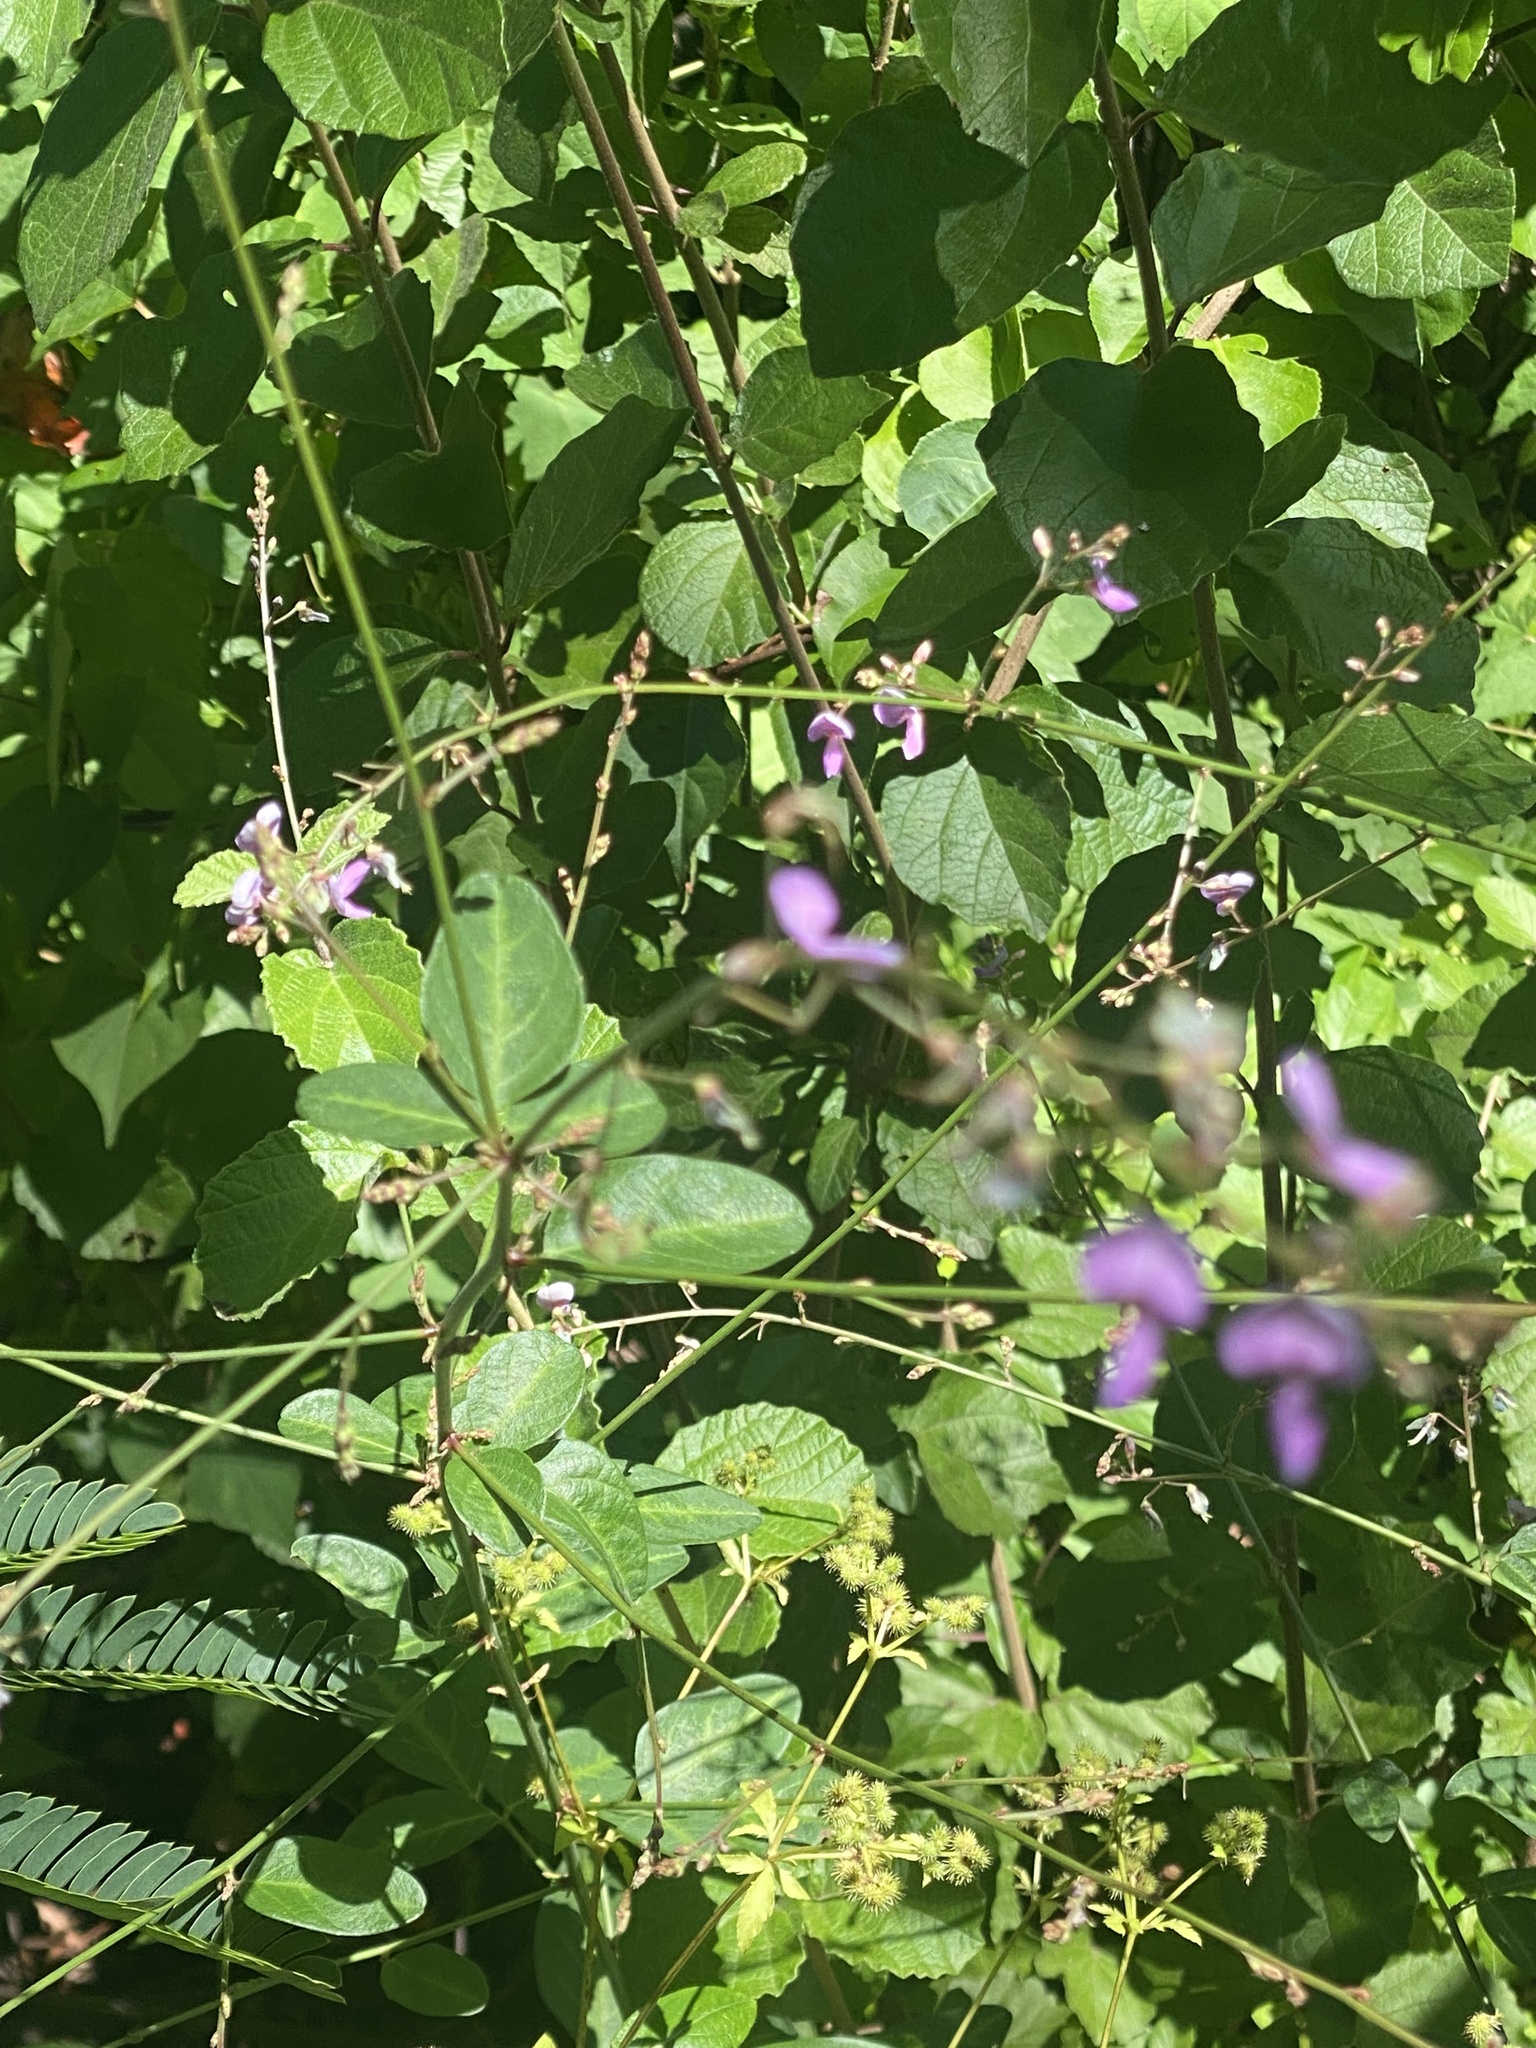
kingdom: Plantae
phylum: Tracheophyta
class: Magnoliopsida
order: Fabales
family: Fabaceae
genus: Desmodium
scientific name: Desmodium paniculatum
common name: Panicled tick-clover
